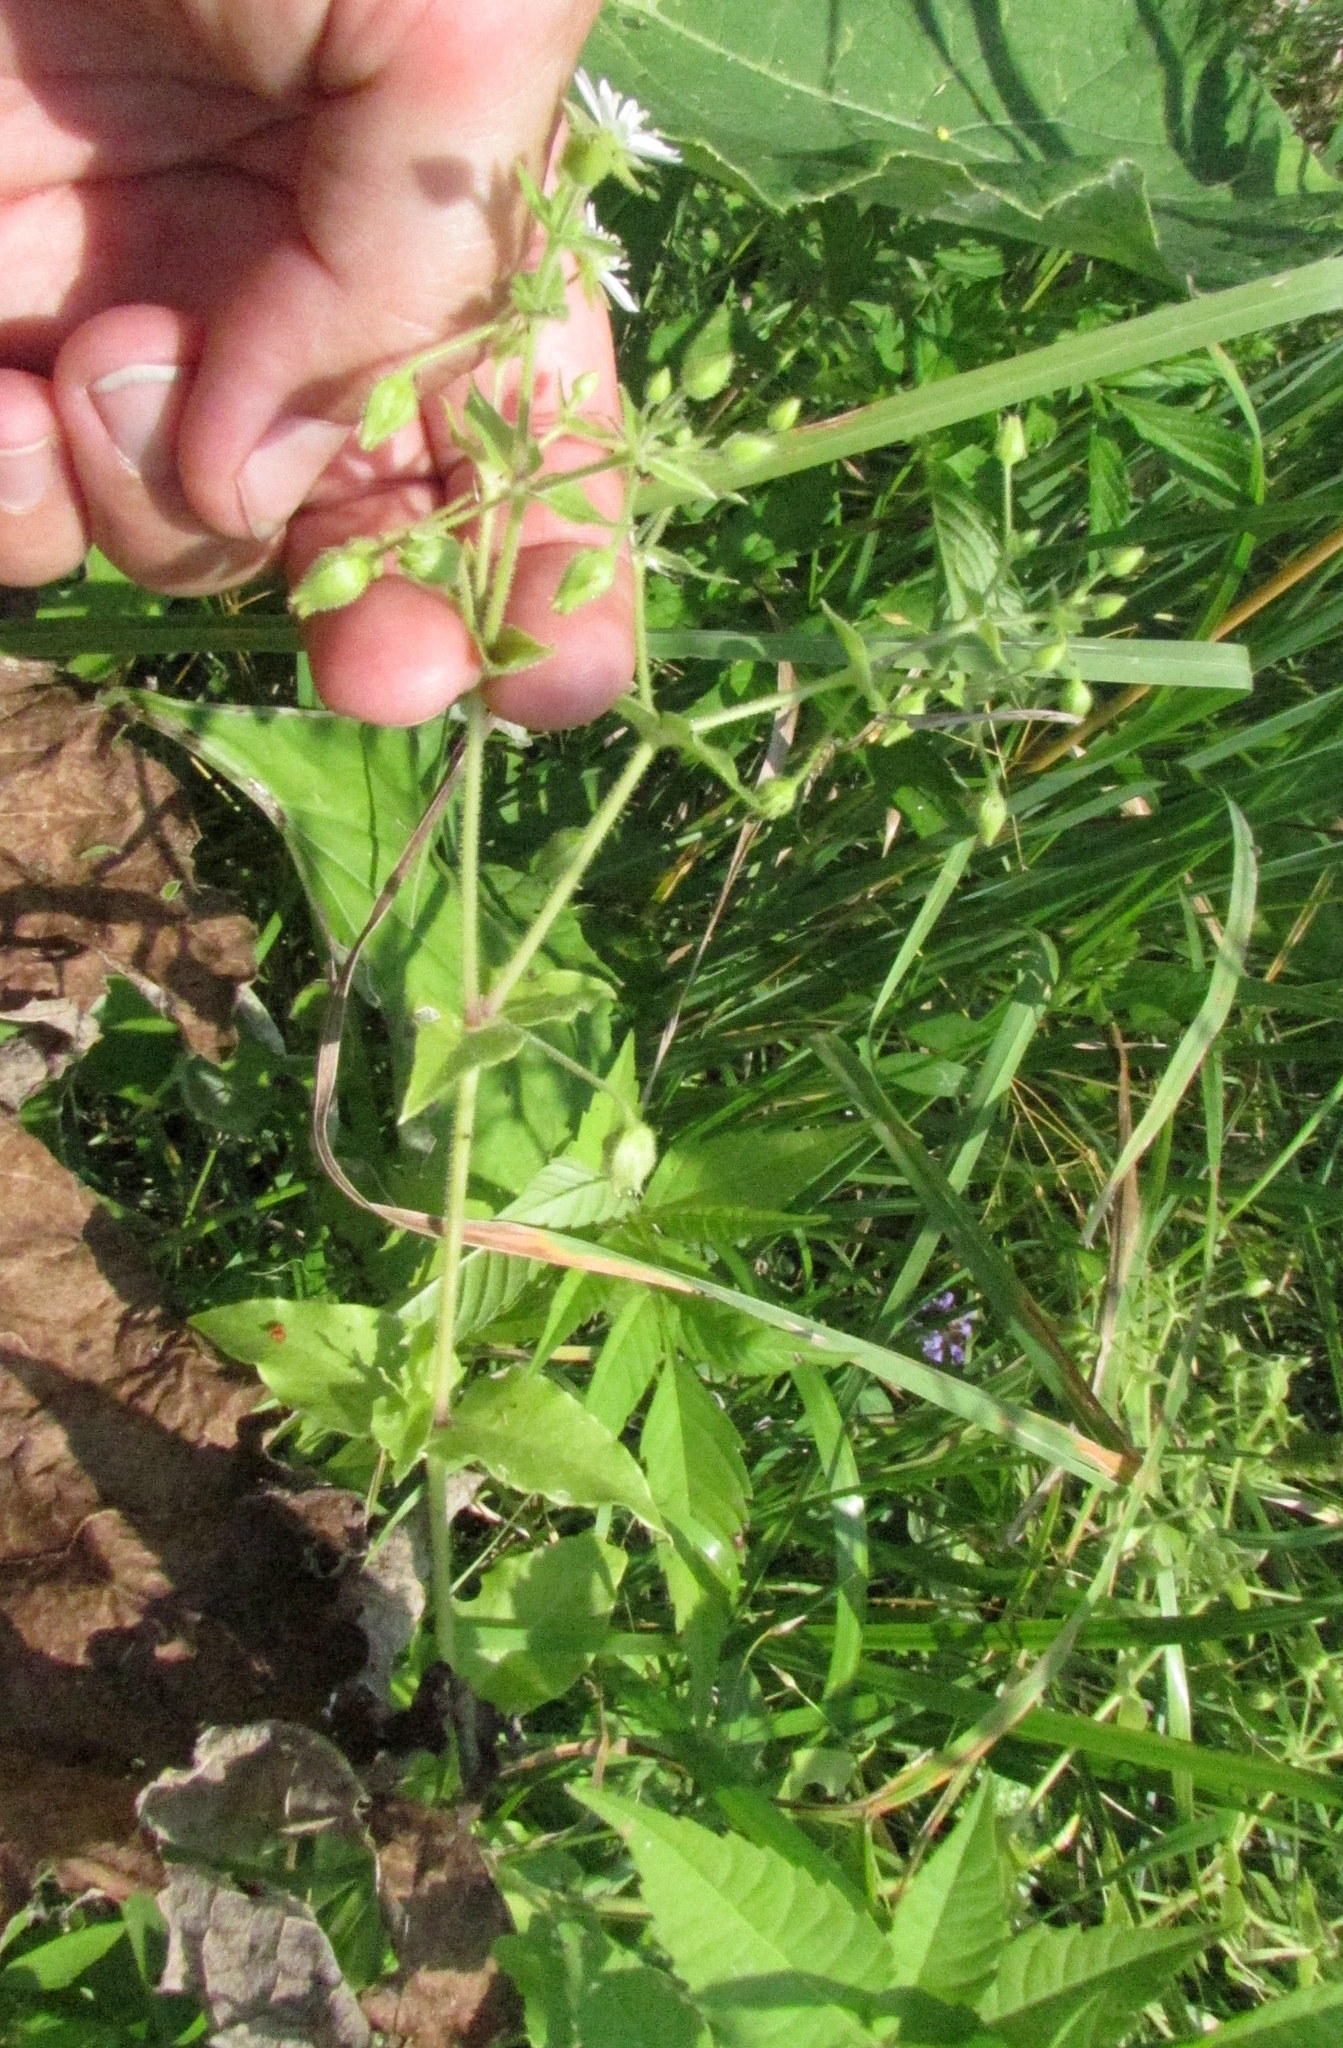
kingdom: Plantae
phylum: Tracheophyta
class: Magnoliopsida
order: Caryophyllales
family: Caryophyllaceae
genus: Stellaria
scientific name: Stellaria aquatica
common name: Water chickweed
